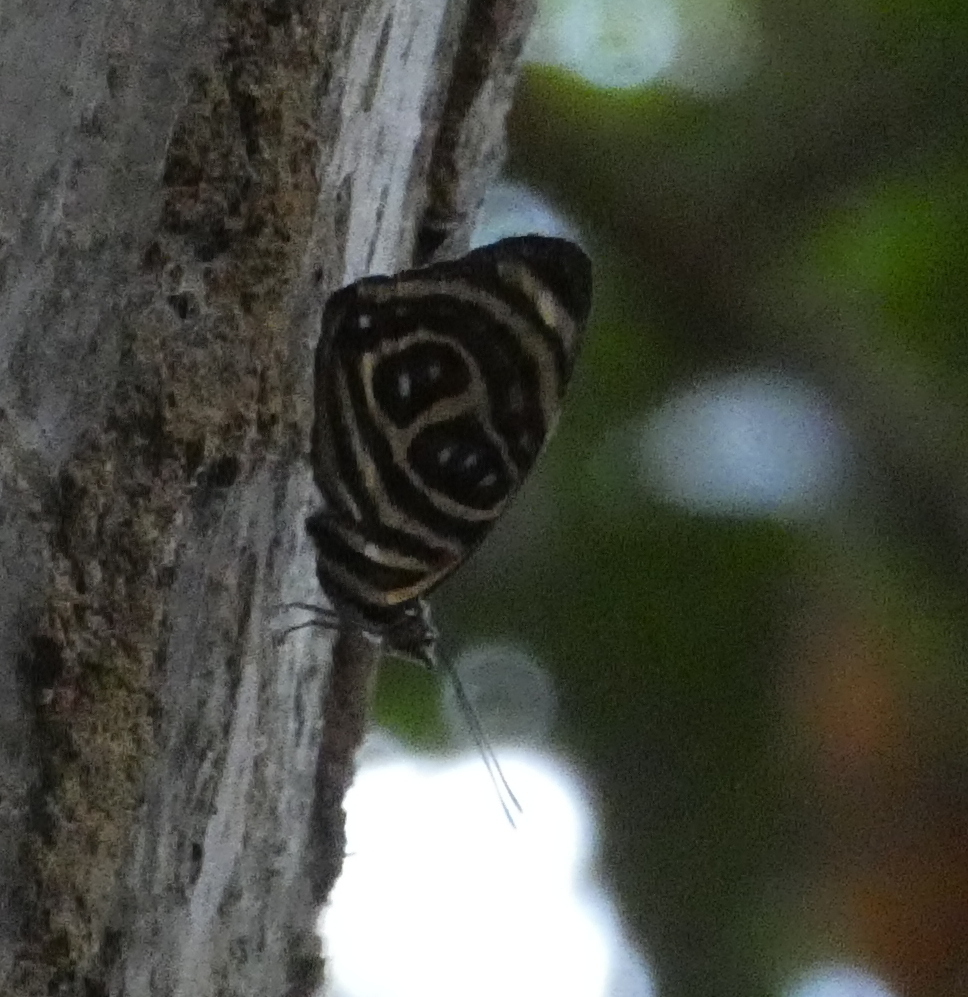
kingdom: Animalia
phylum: Arthropoda
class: Insecta
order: Lepidoptera
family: Nymphalidae
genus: Catagramma
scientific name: Catagramma pygas
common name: Godart's numberwing
